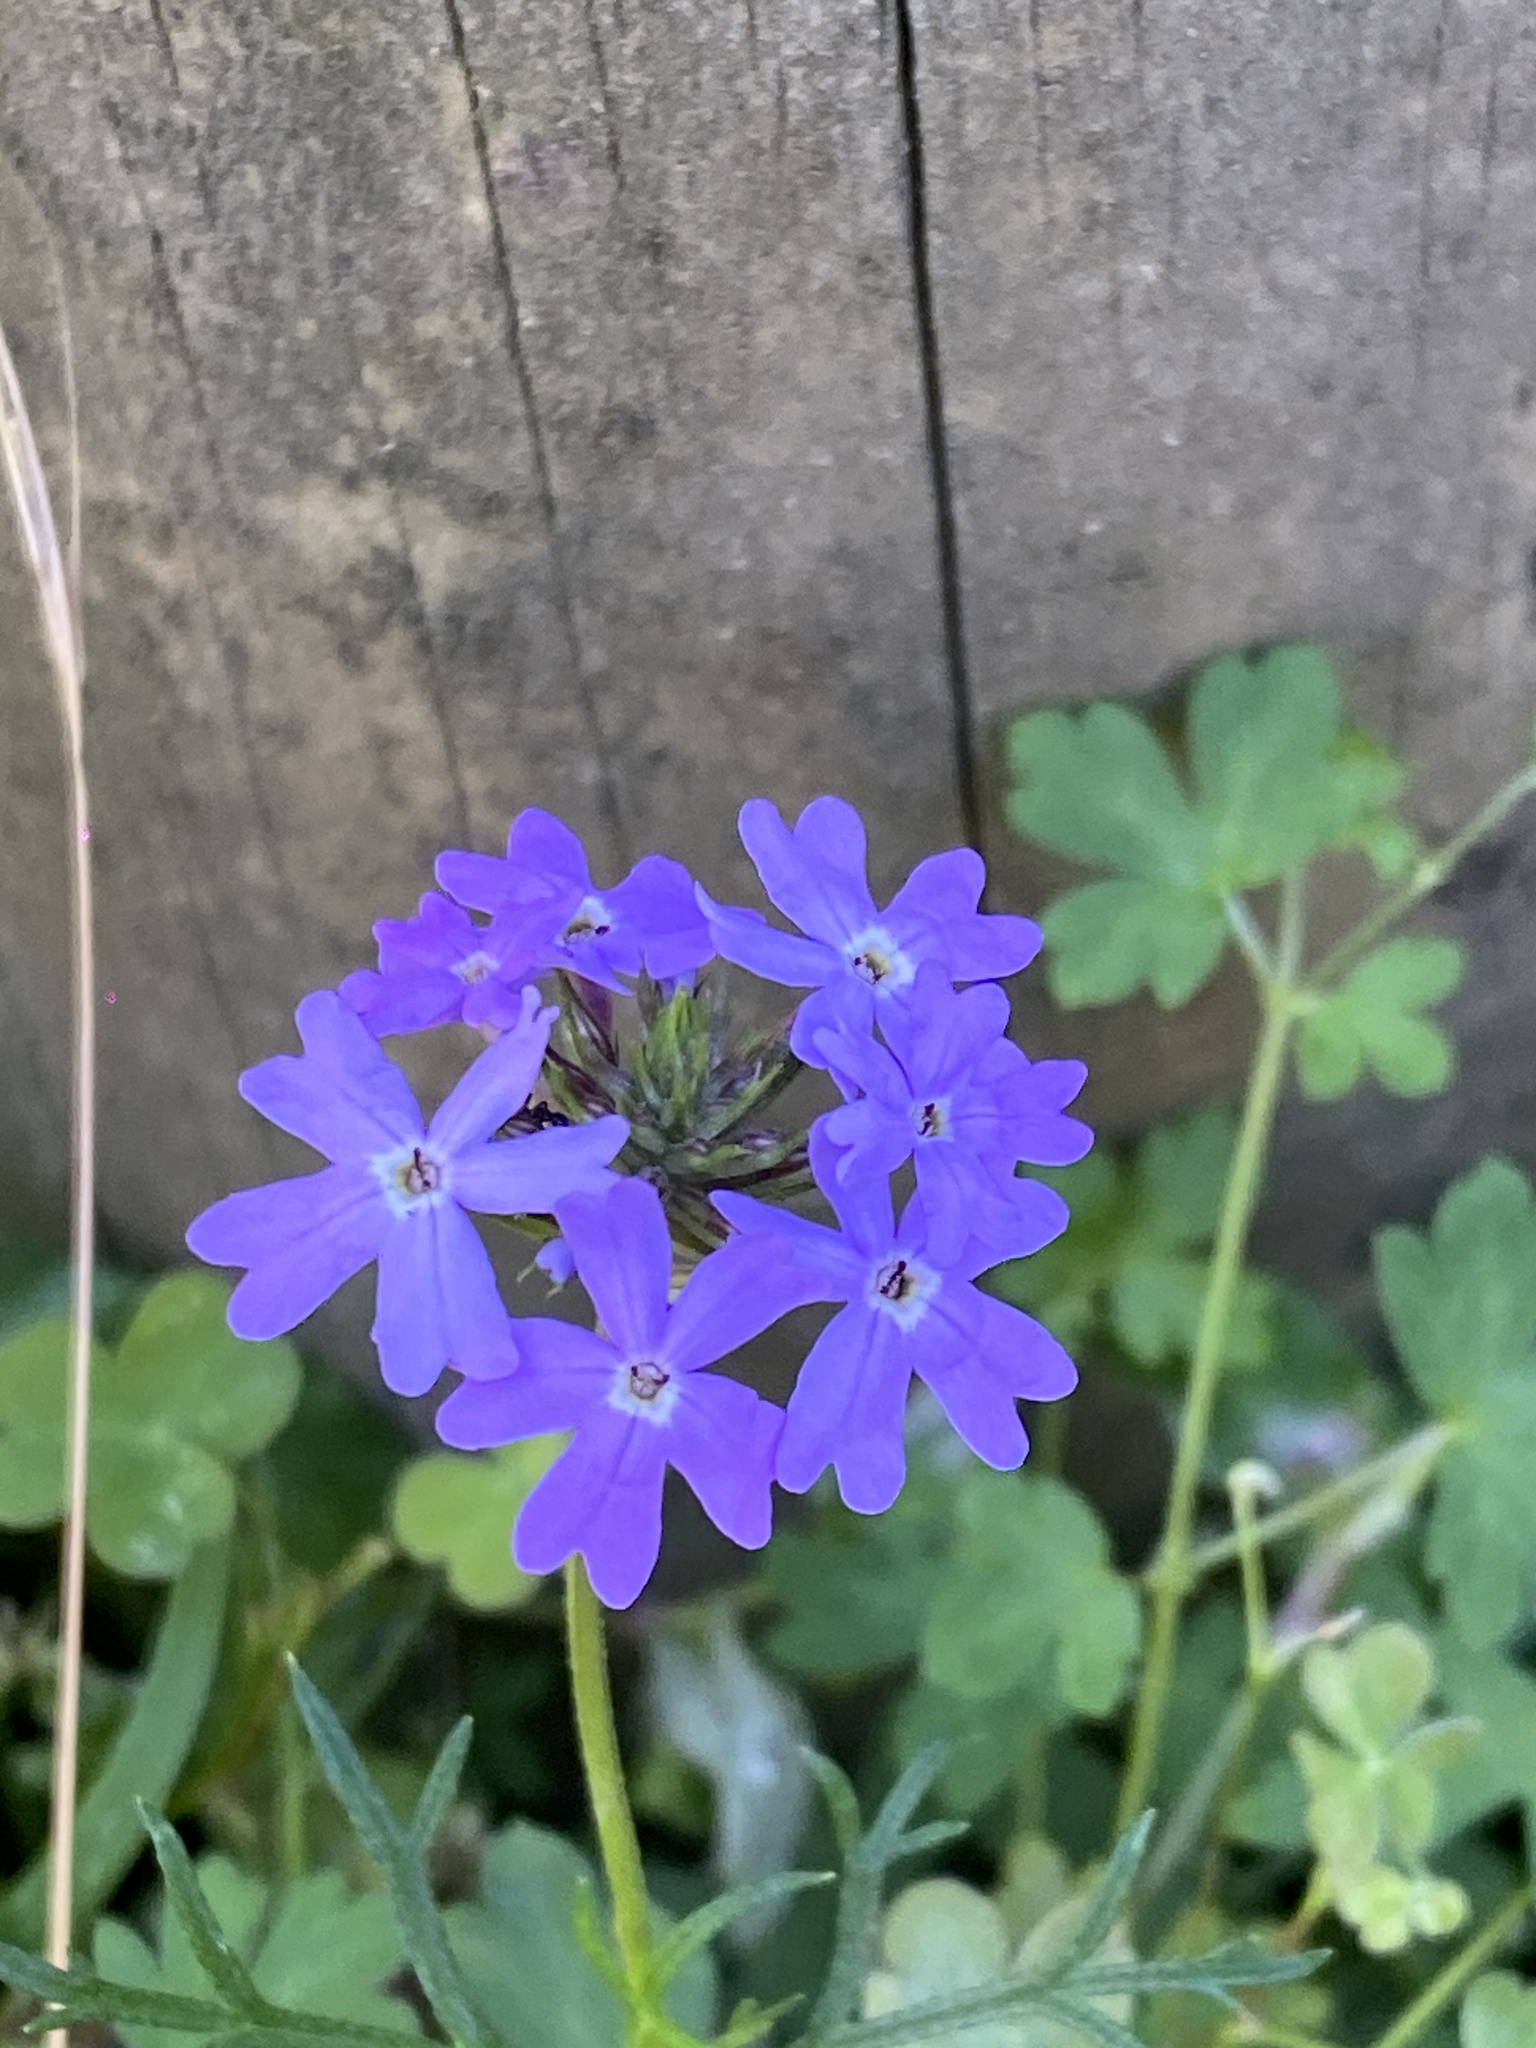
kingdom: Plantae
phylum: Tracheophyta
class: Magnoliopsida
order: Lamiales
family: Verbenaceae
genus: Verbena
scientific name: Verbena aristigera
